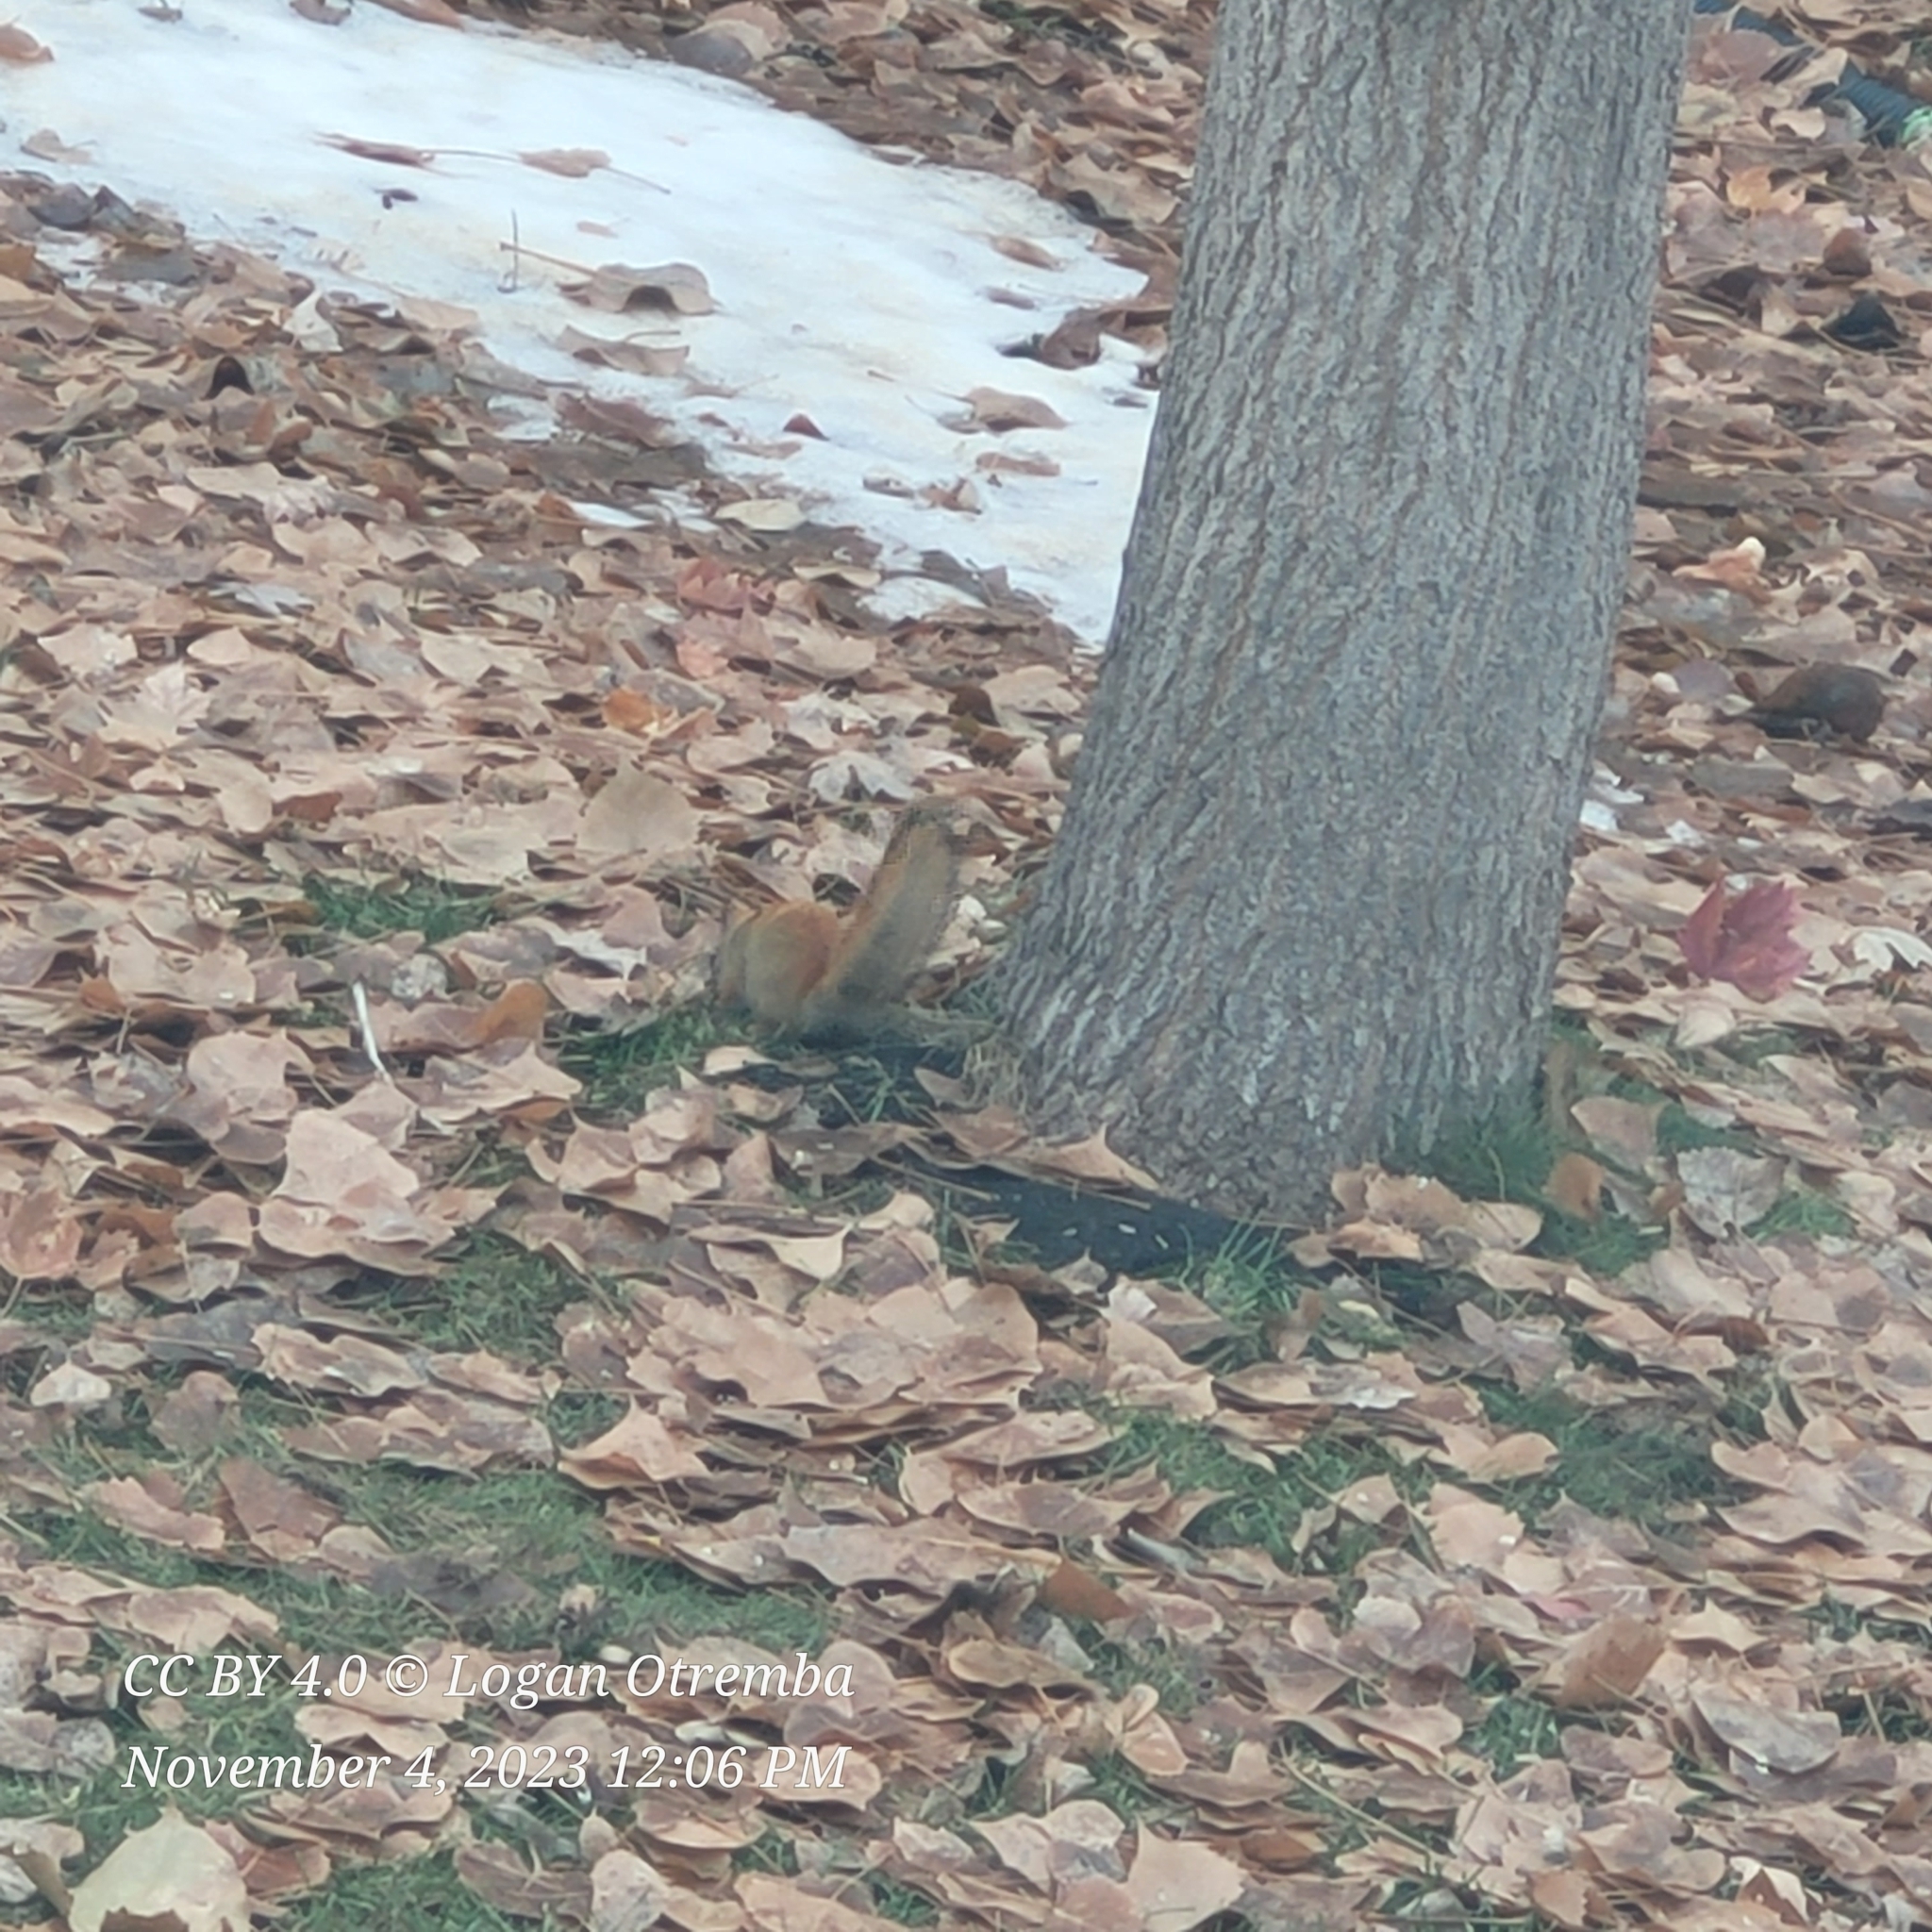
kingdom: Animalia
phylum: Chordata
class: Mammalia
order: Rodentia
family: Sciuridae
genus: Tamiasciurus
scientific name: Tamiasciurus hudsonicus
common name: Red squirrel
